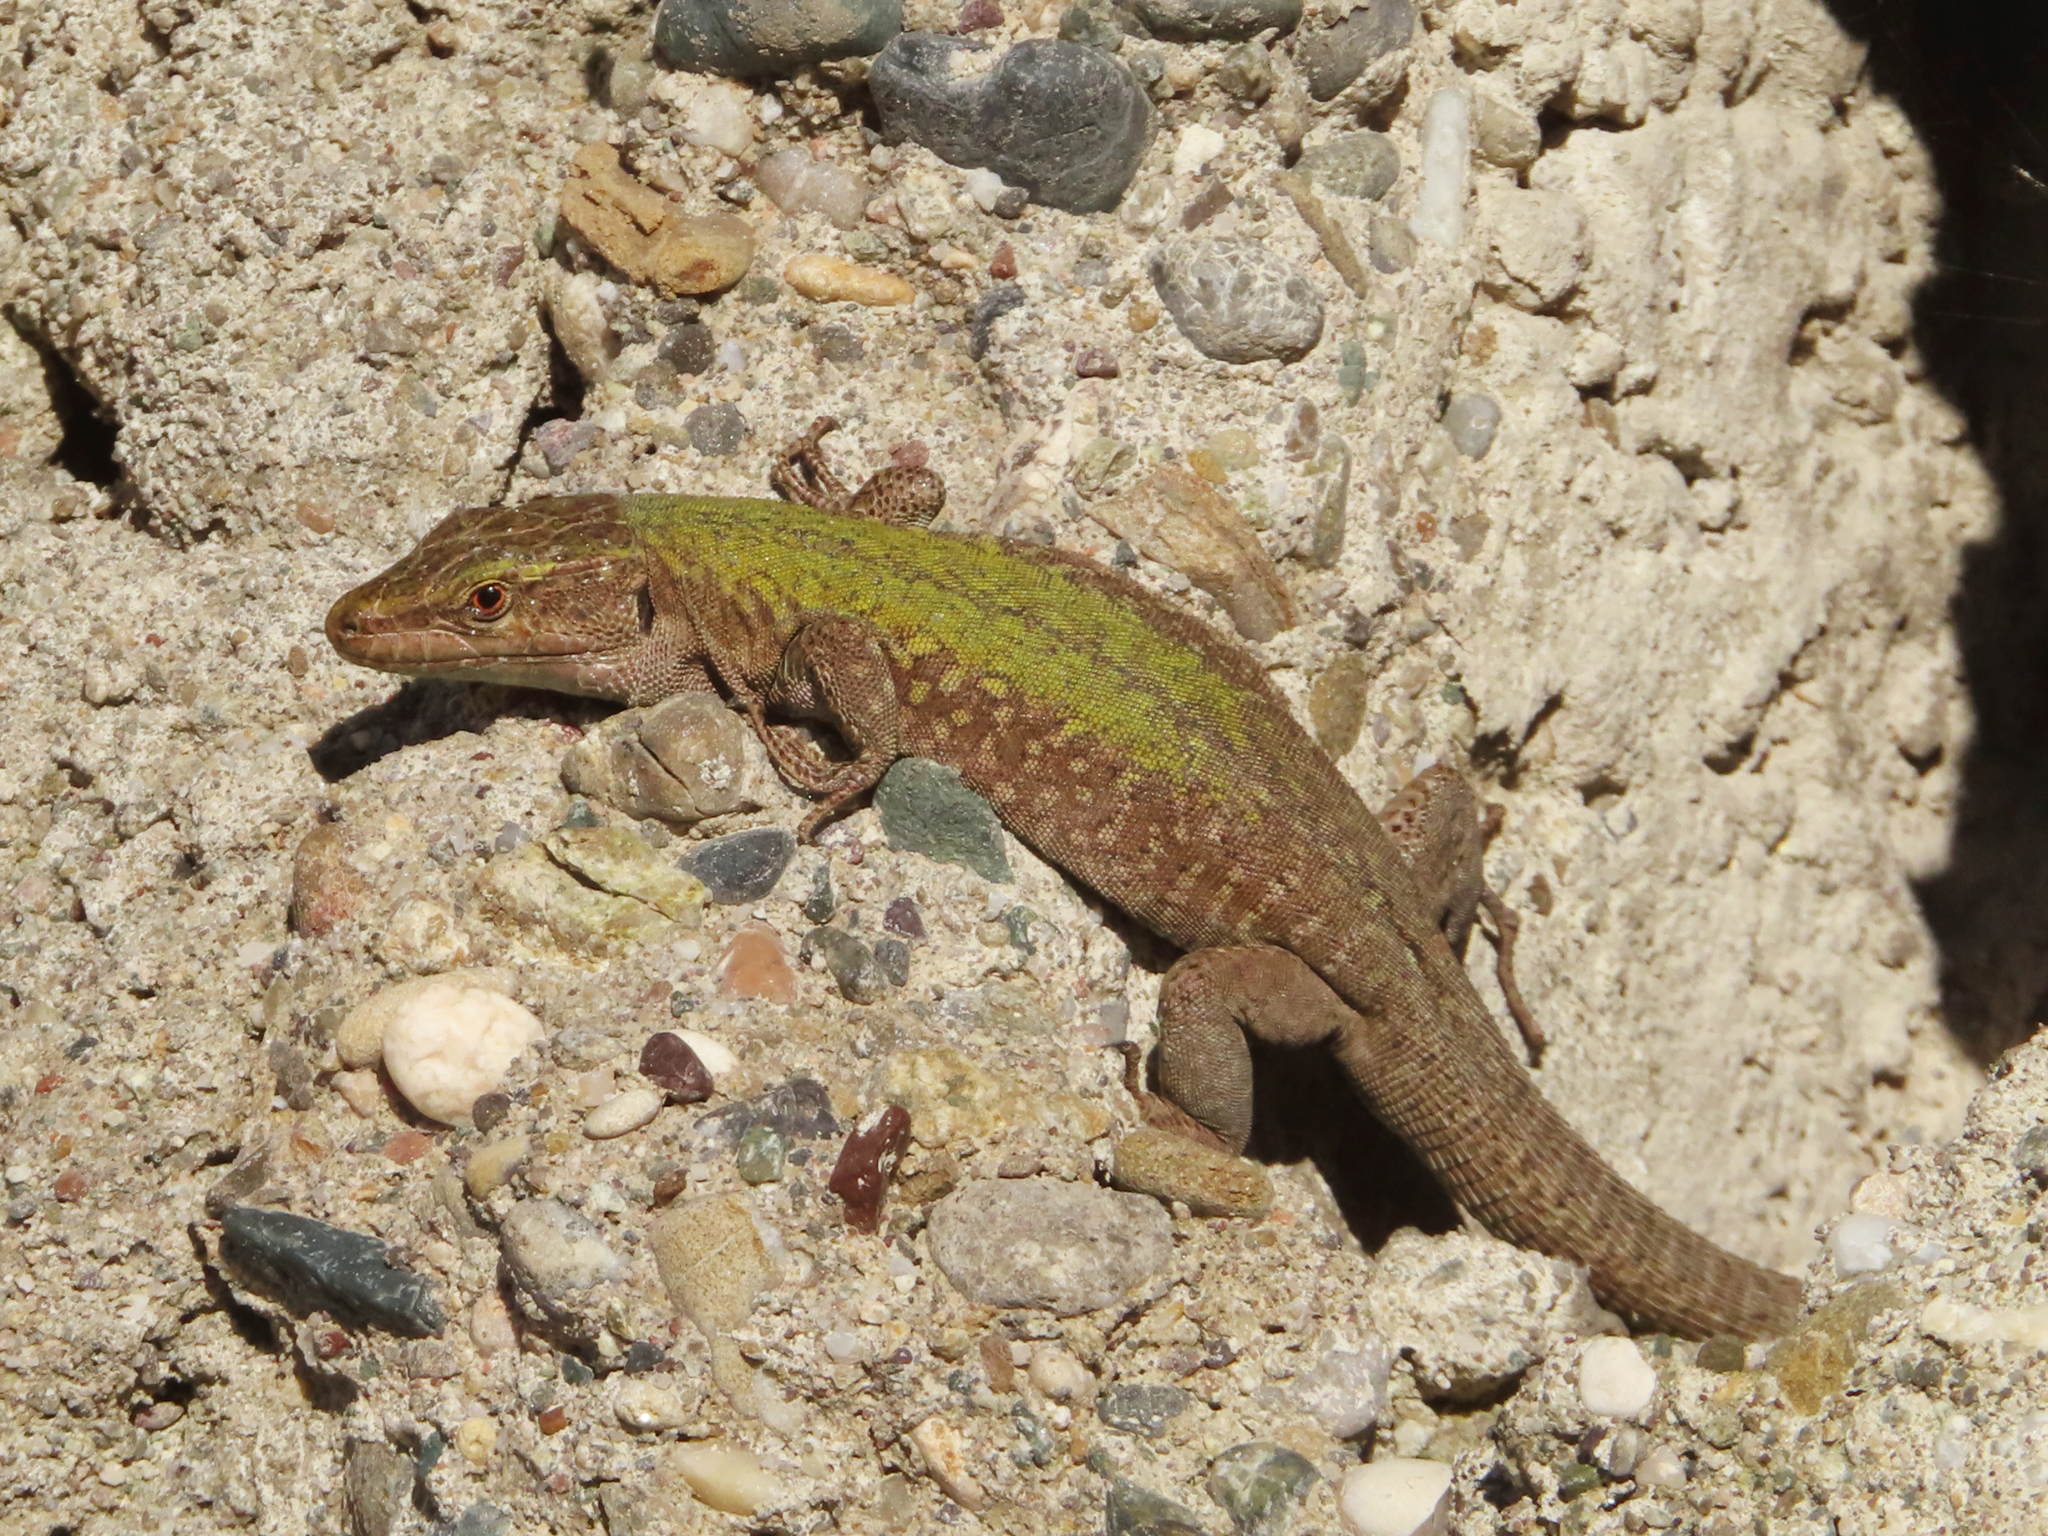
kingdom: Animalia
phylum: Chordata
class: Squamata
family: Lacertidae
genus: Podarcis
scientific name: Podarcis siculus
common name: Italian wall lizard
